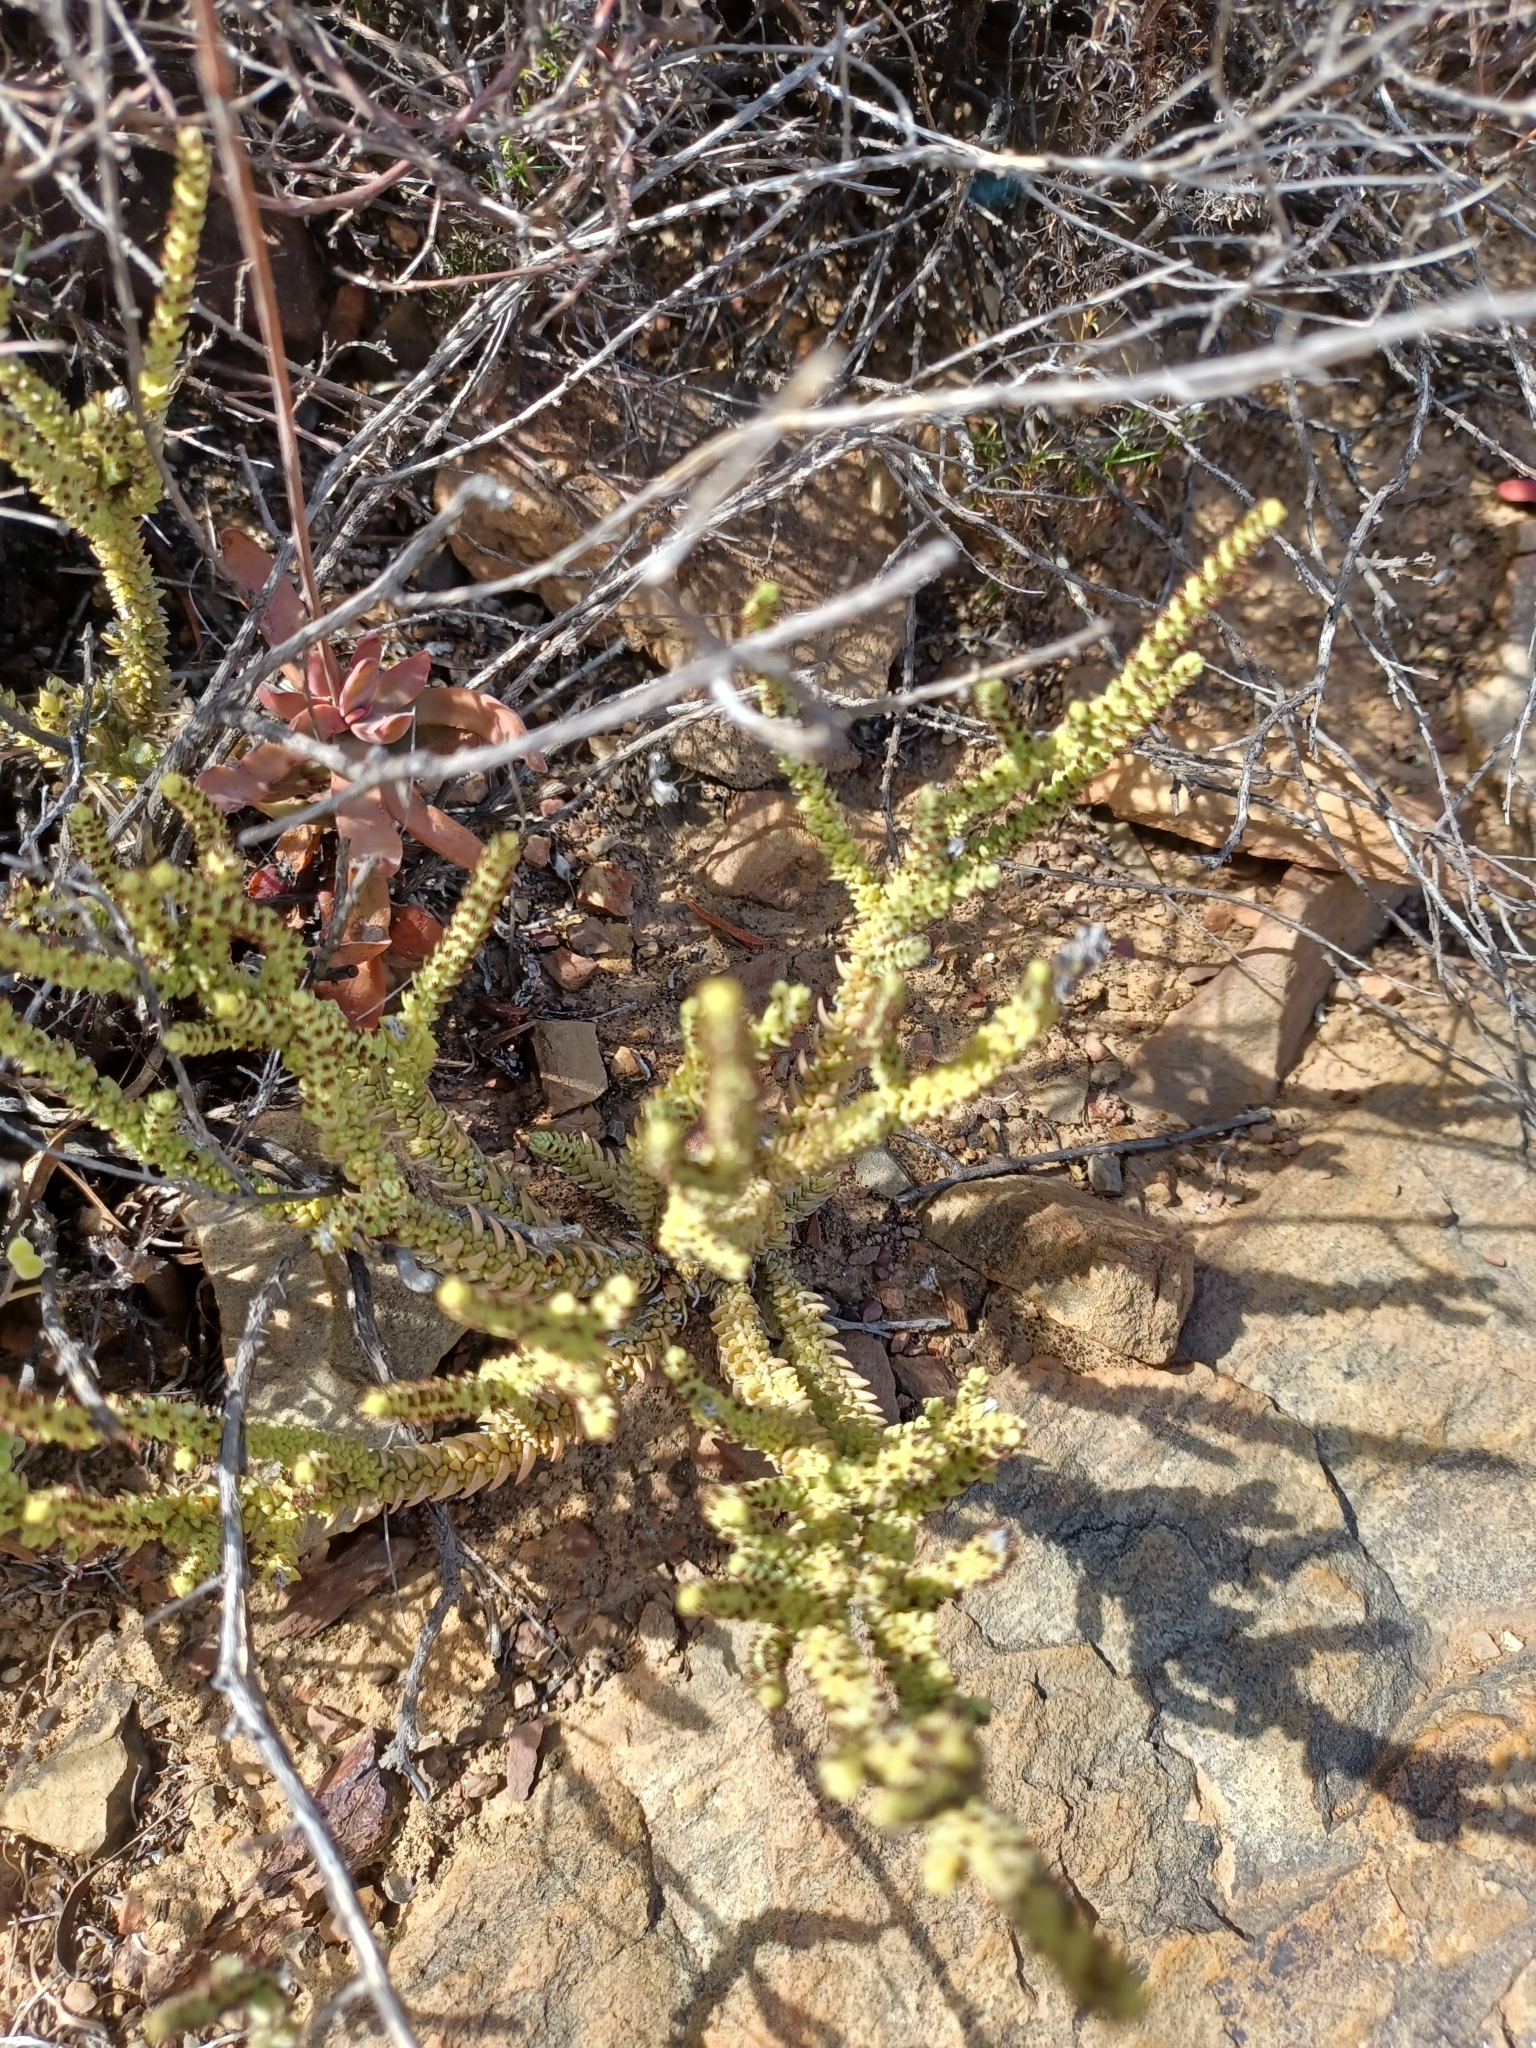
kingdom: Plantae
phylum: Tracheophyta
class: Magnoliopsida
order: Saxifragales
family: Crassulaceae
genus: Crassula
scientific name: Crassula muscosa
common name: Toy-cypress
